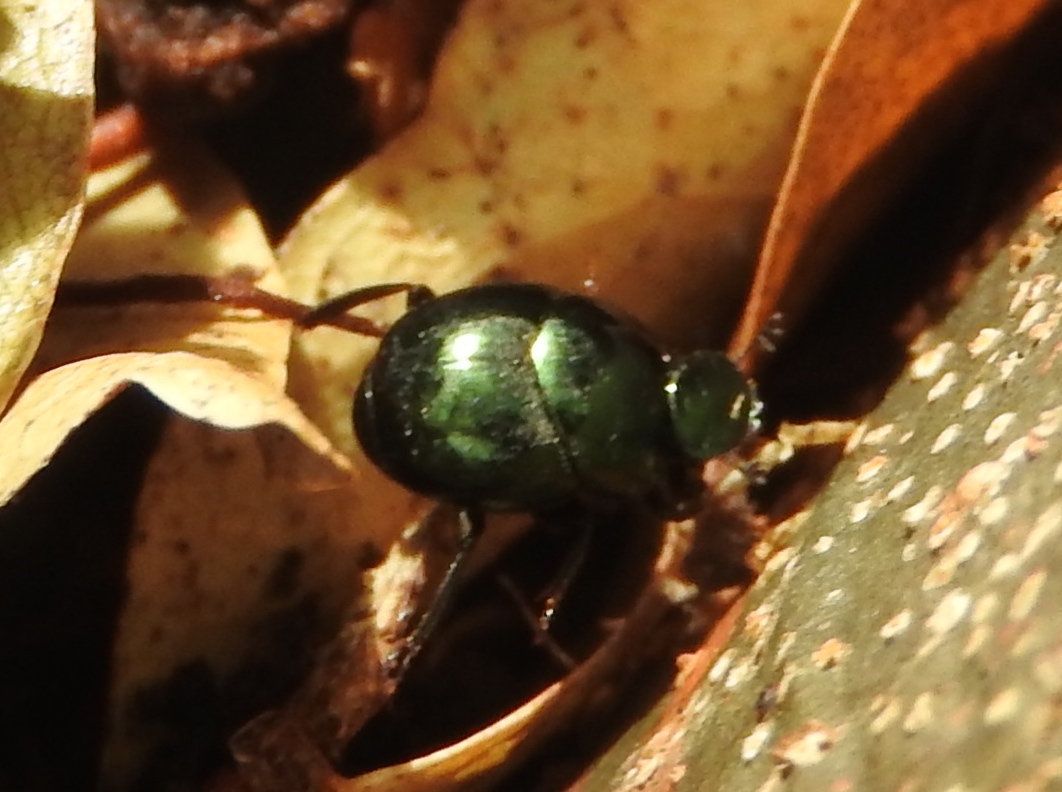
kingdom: Animalia
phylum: Arthropoda
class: Insecta
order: Coleoptera
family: Scarabaeidae
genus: Canthon
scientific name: Canthon
